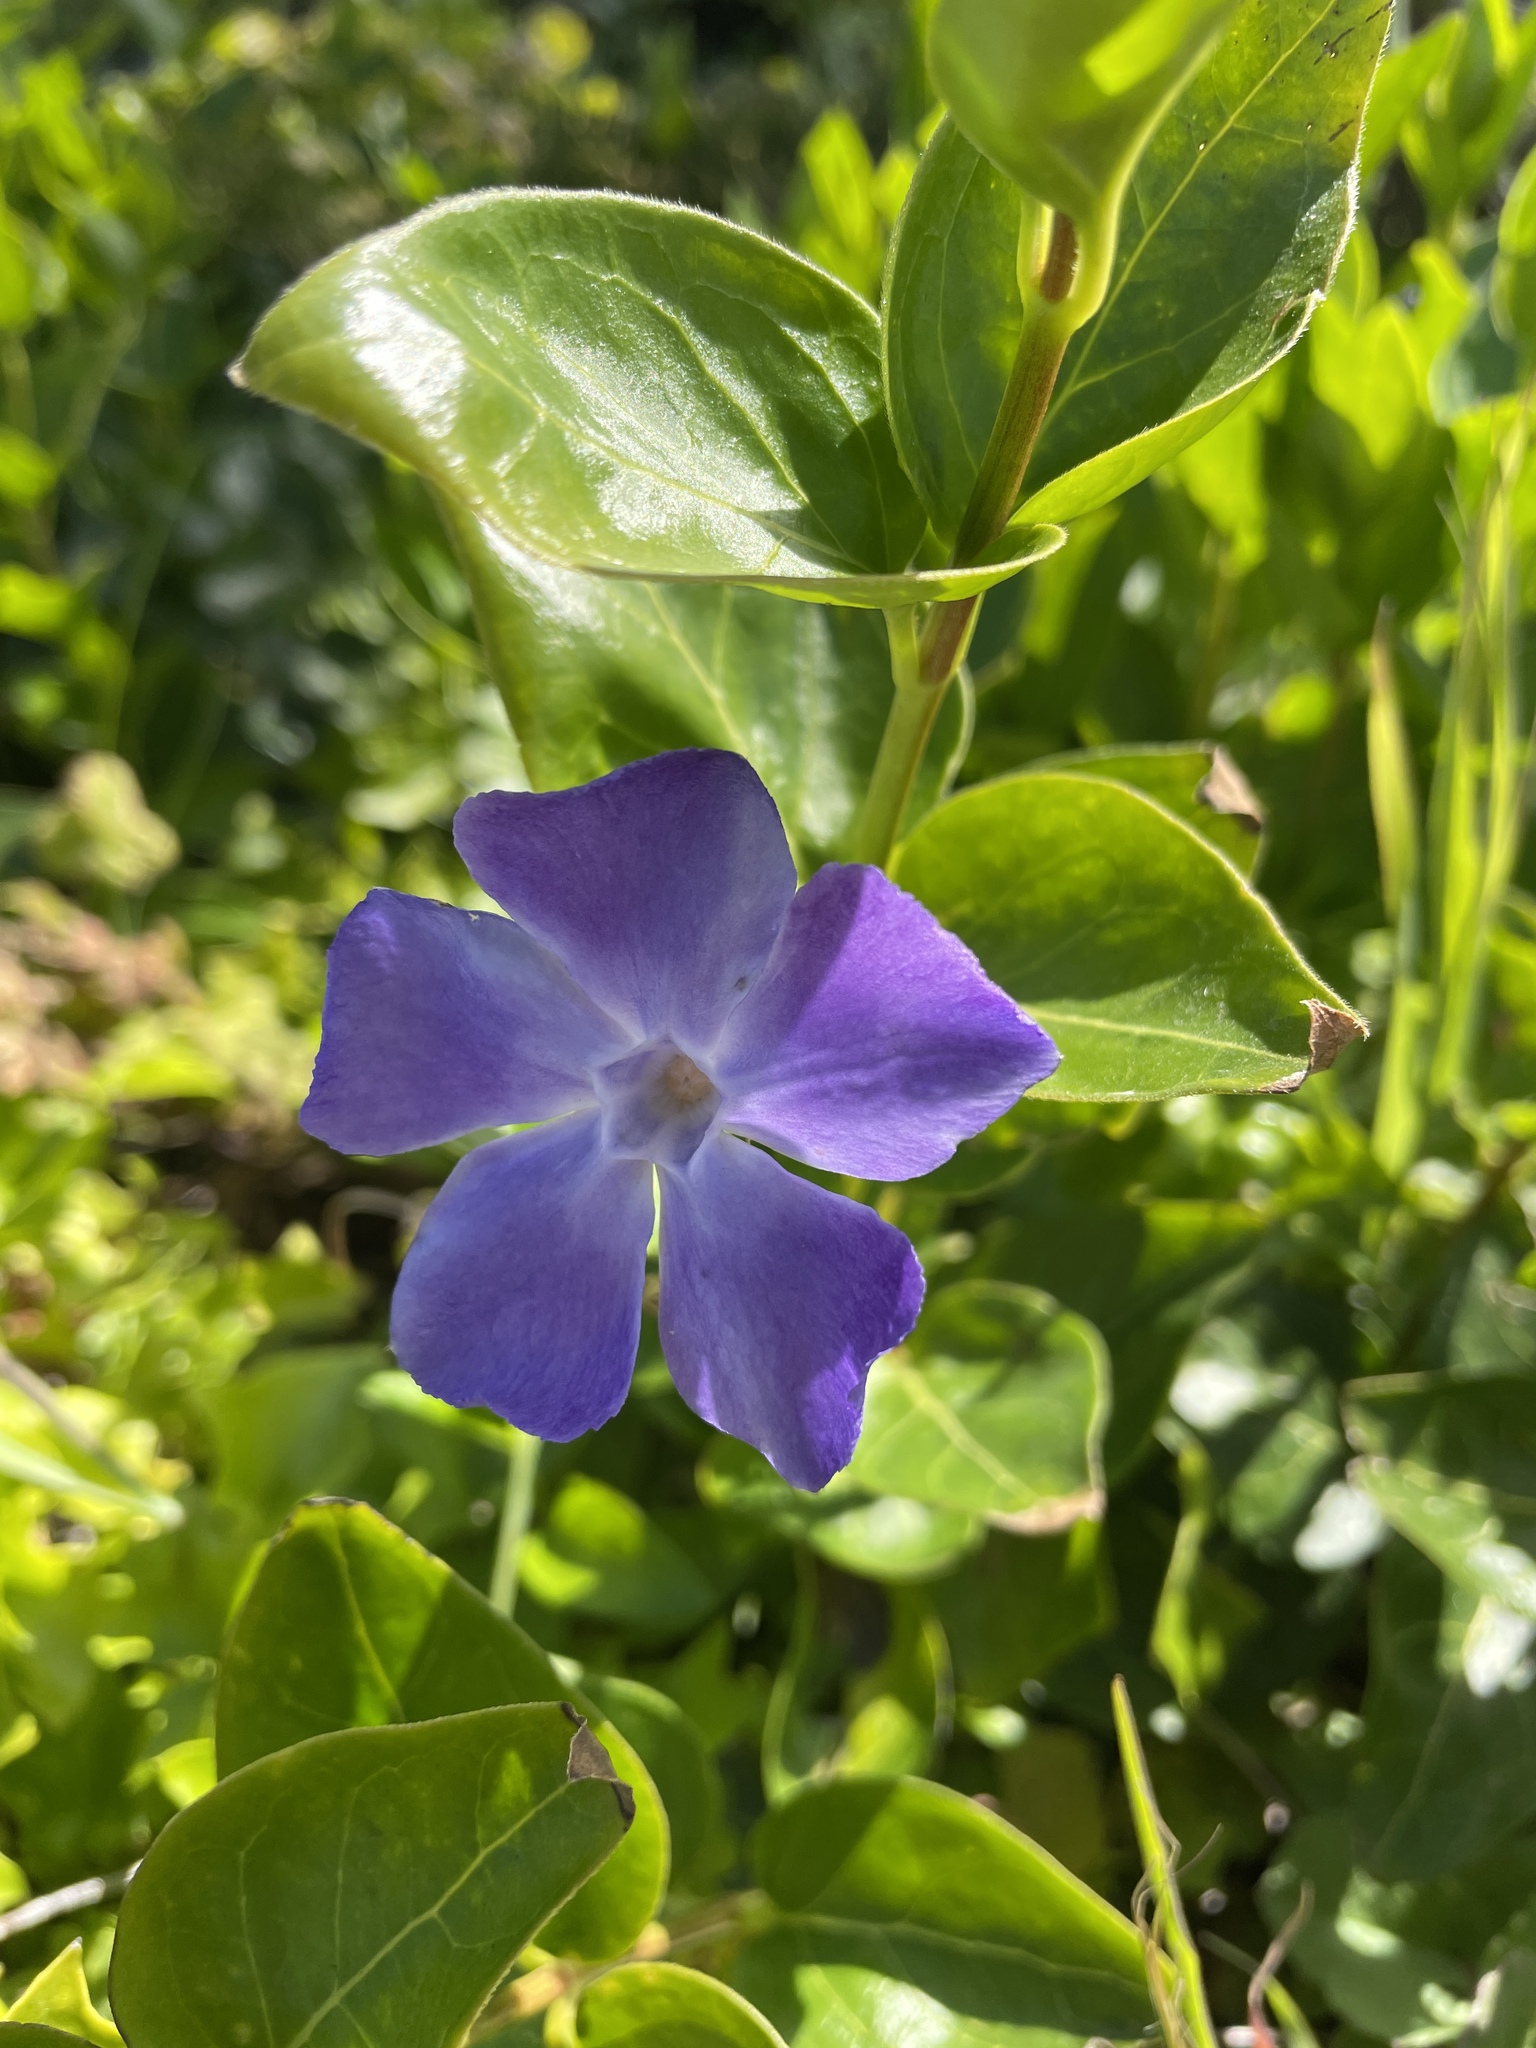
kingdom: Plantae
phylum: Tracheophyta
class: Magnoliopsida
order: Gentianales
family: Apocynaceae
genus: Vinca
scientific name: Vinca major
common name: Greater periwinkle
